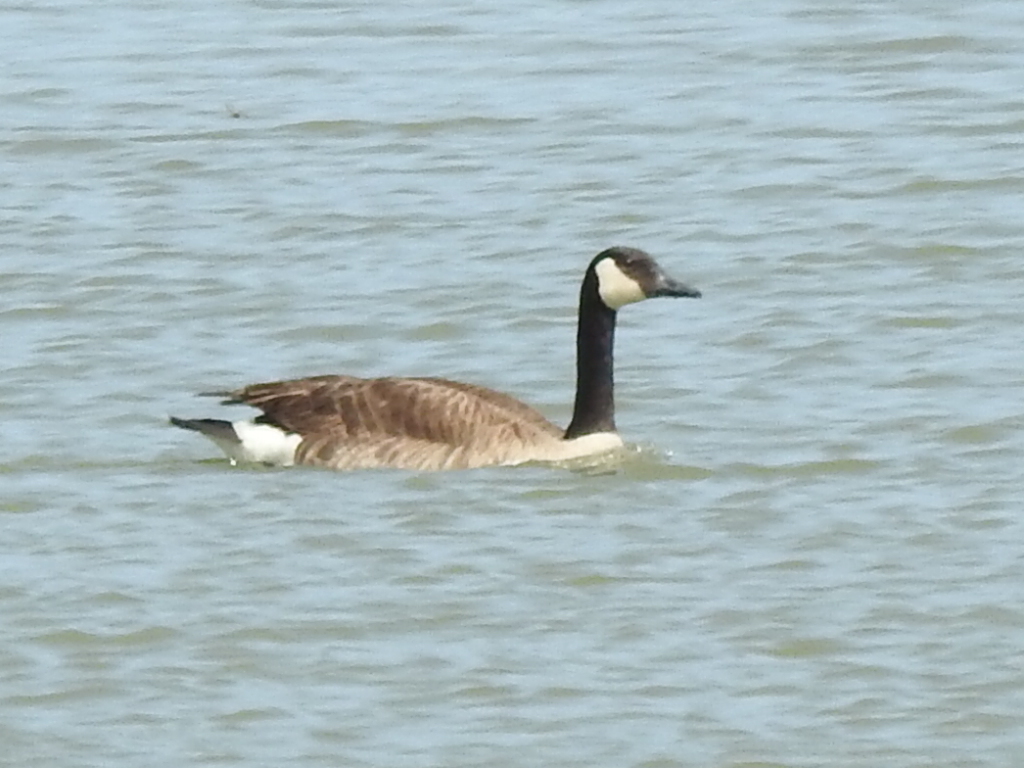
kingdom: Animalia
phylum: Chordata
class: Aves
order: Anseriformes
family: Anatidae
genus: Branta
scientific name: Branta canadensis
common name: Canada goose
